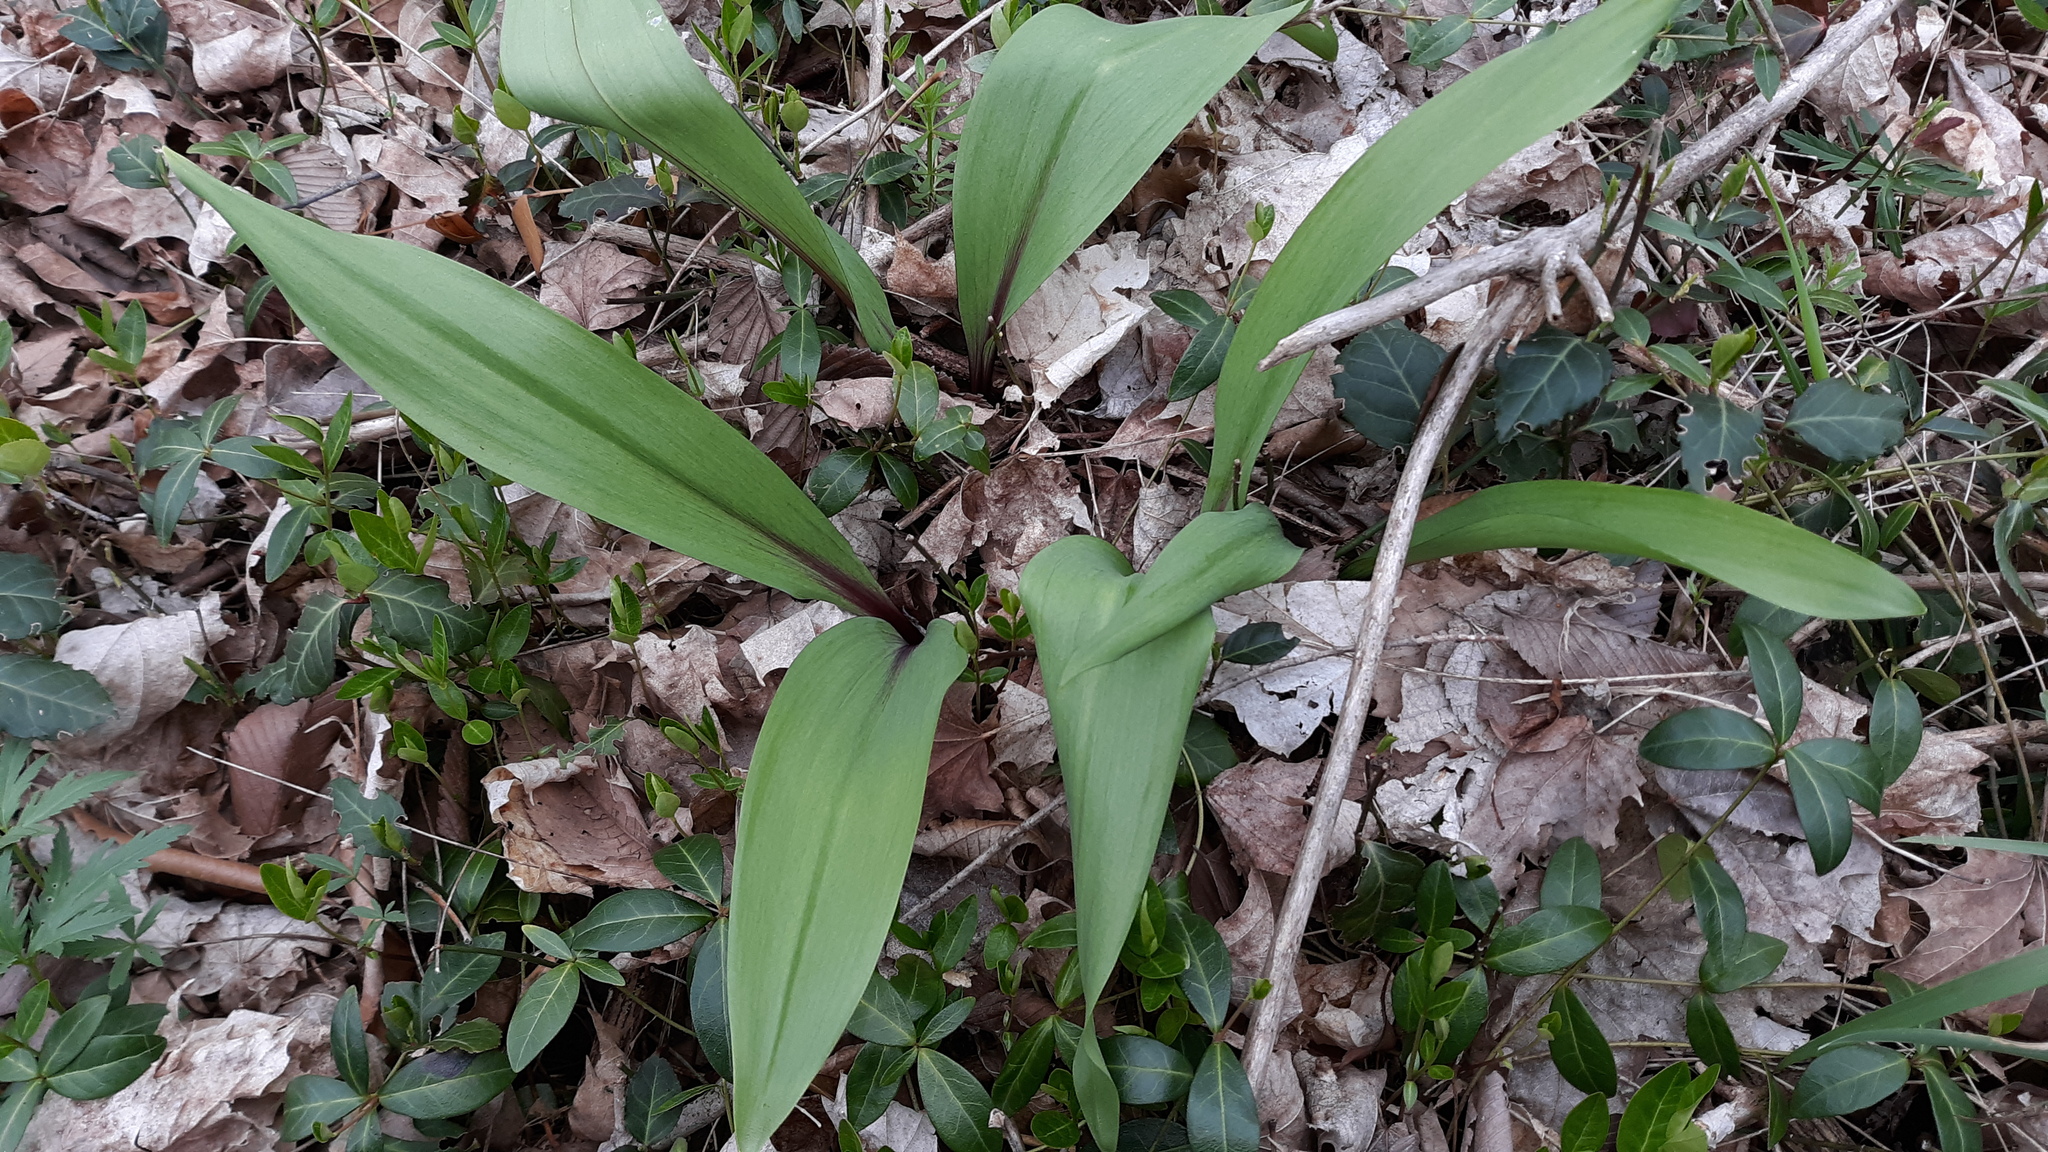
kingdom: Plantae
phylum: Tracheophyta
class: Liliopsida
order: Asparagales
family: Amaryllidaceae
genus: Allium
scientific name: Allium tricoccum
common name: Ramp
